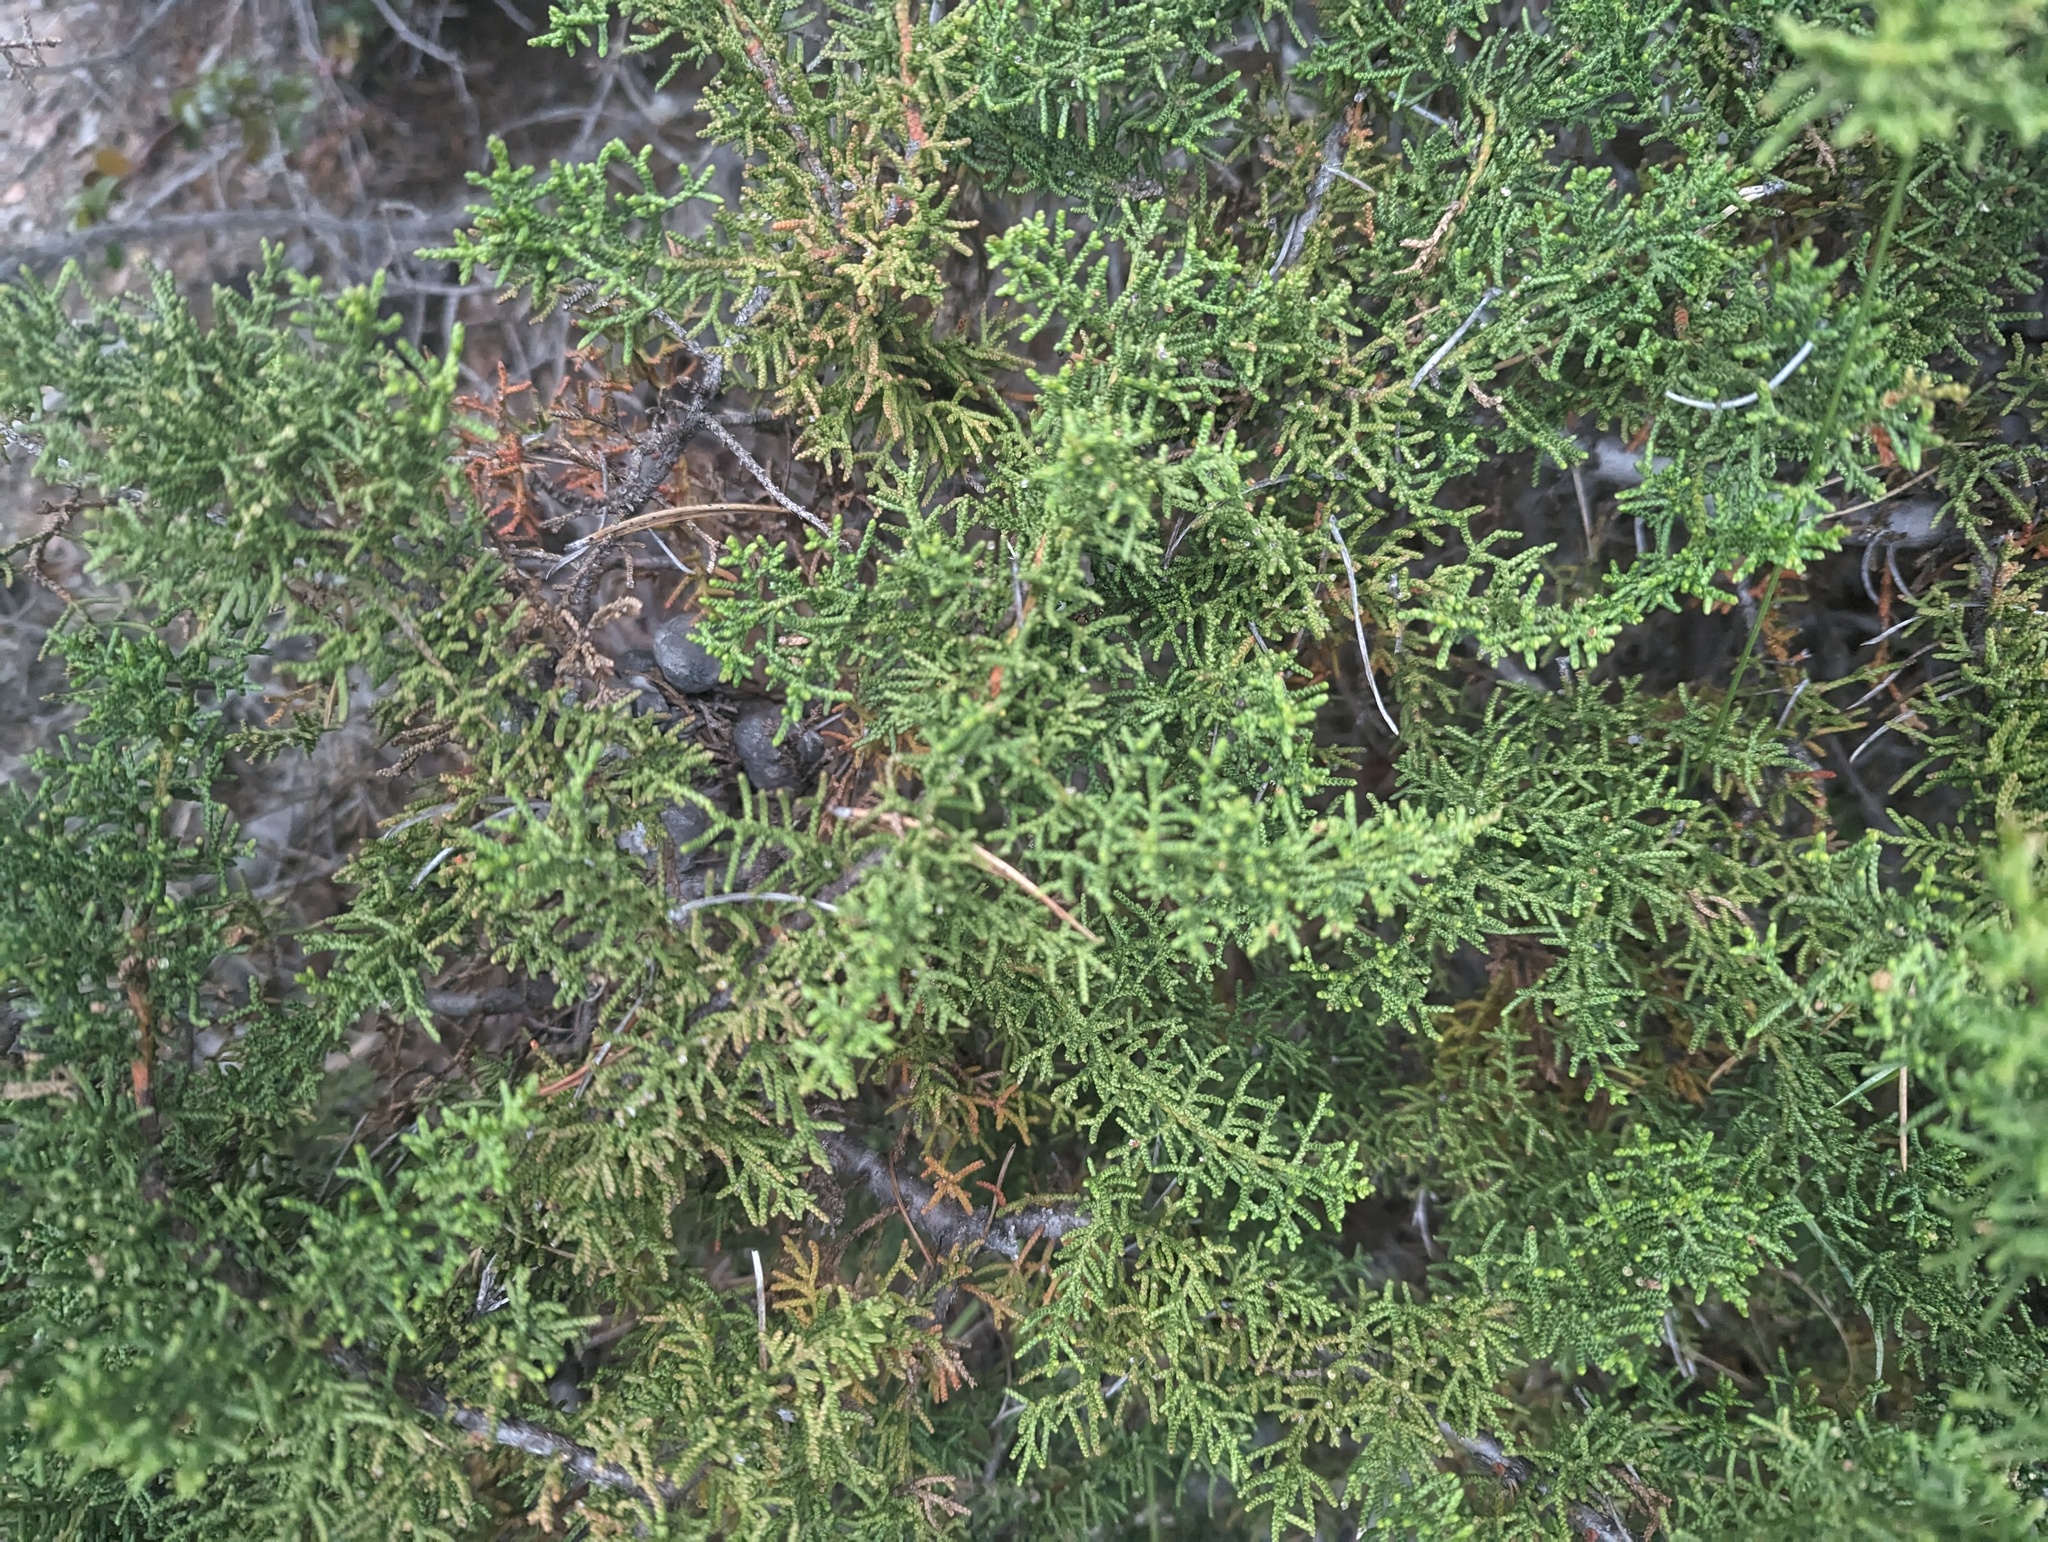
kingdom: Plantae
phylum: Tracheophyta
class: Pinopsida
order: Pinales
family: Cupressaceae
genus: Cupressus
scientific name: Cupressus goveniana
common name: Gowen cypress
